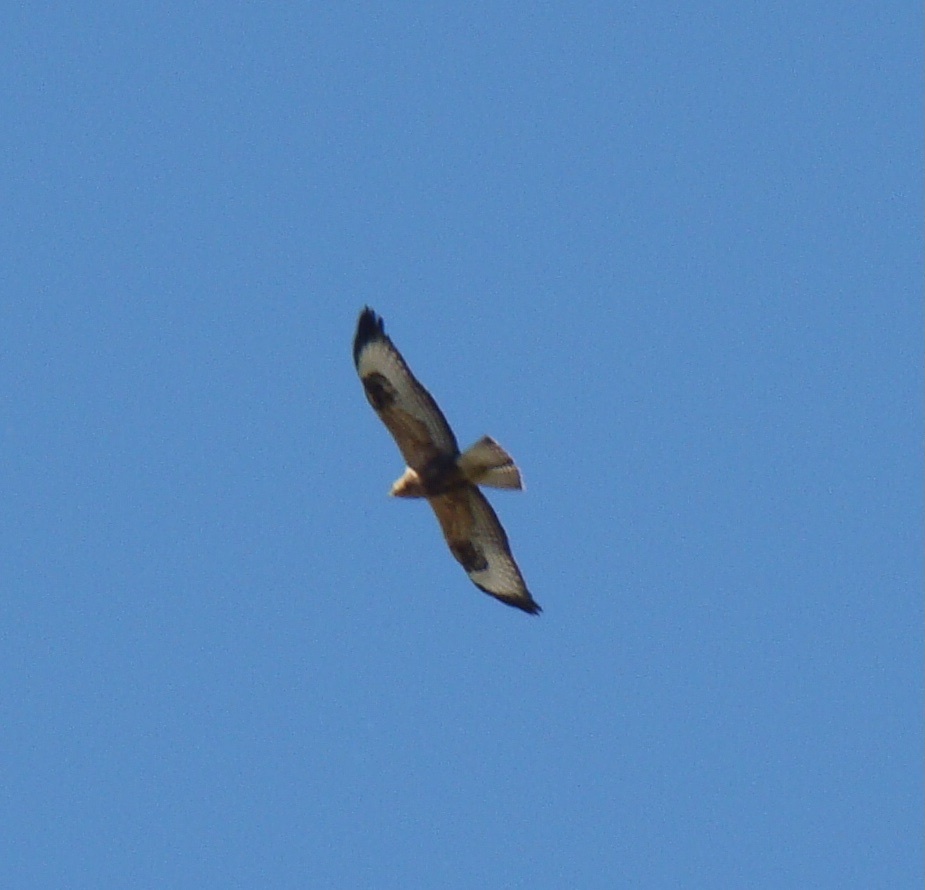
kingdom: Animalia
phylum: Chordata
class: Aves
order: Accipitriformes
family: Accipitridae
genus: Buteo
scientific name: Buteo rufinus
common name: Long-legged buzzard
